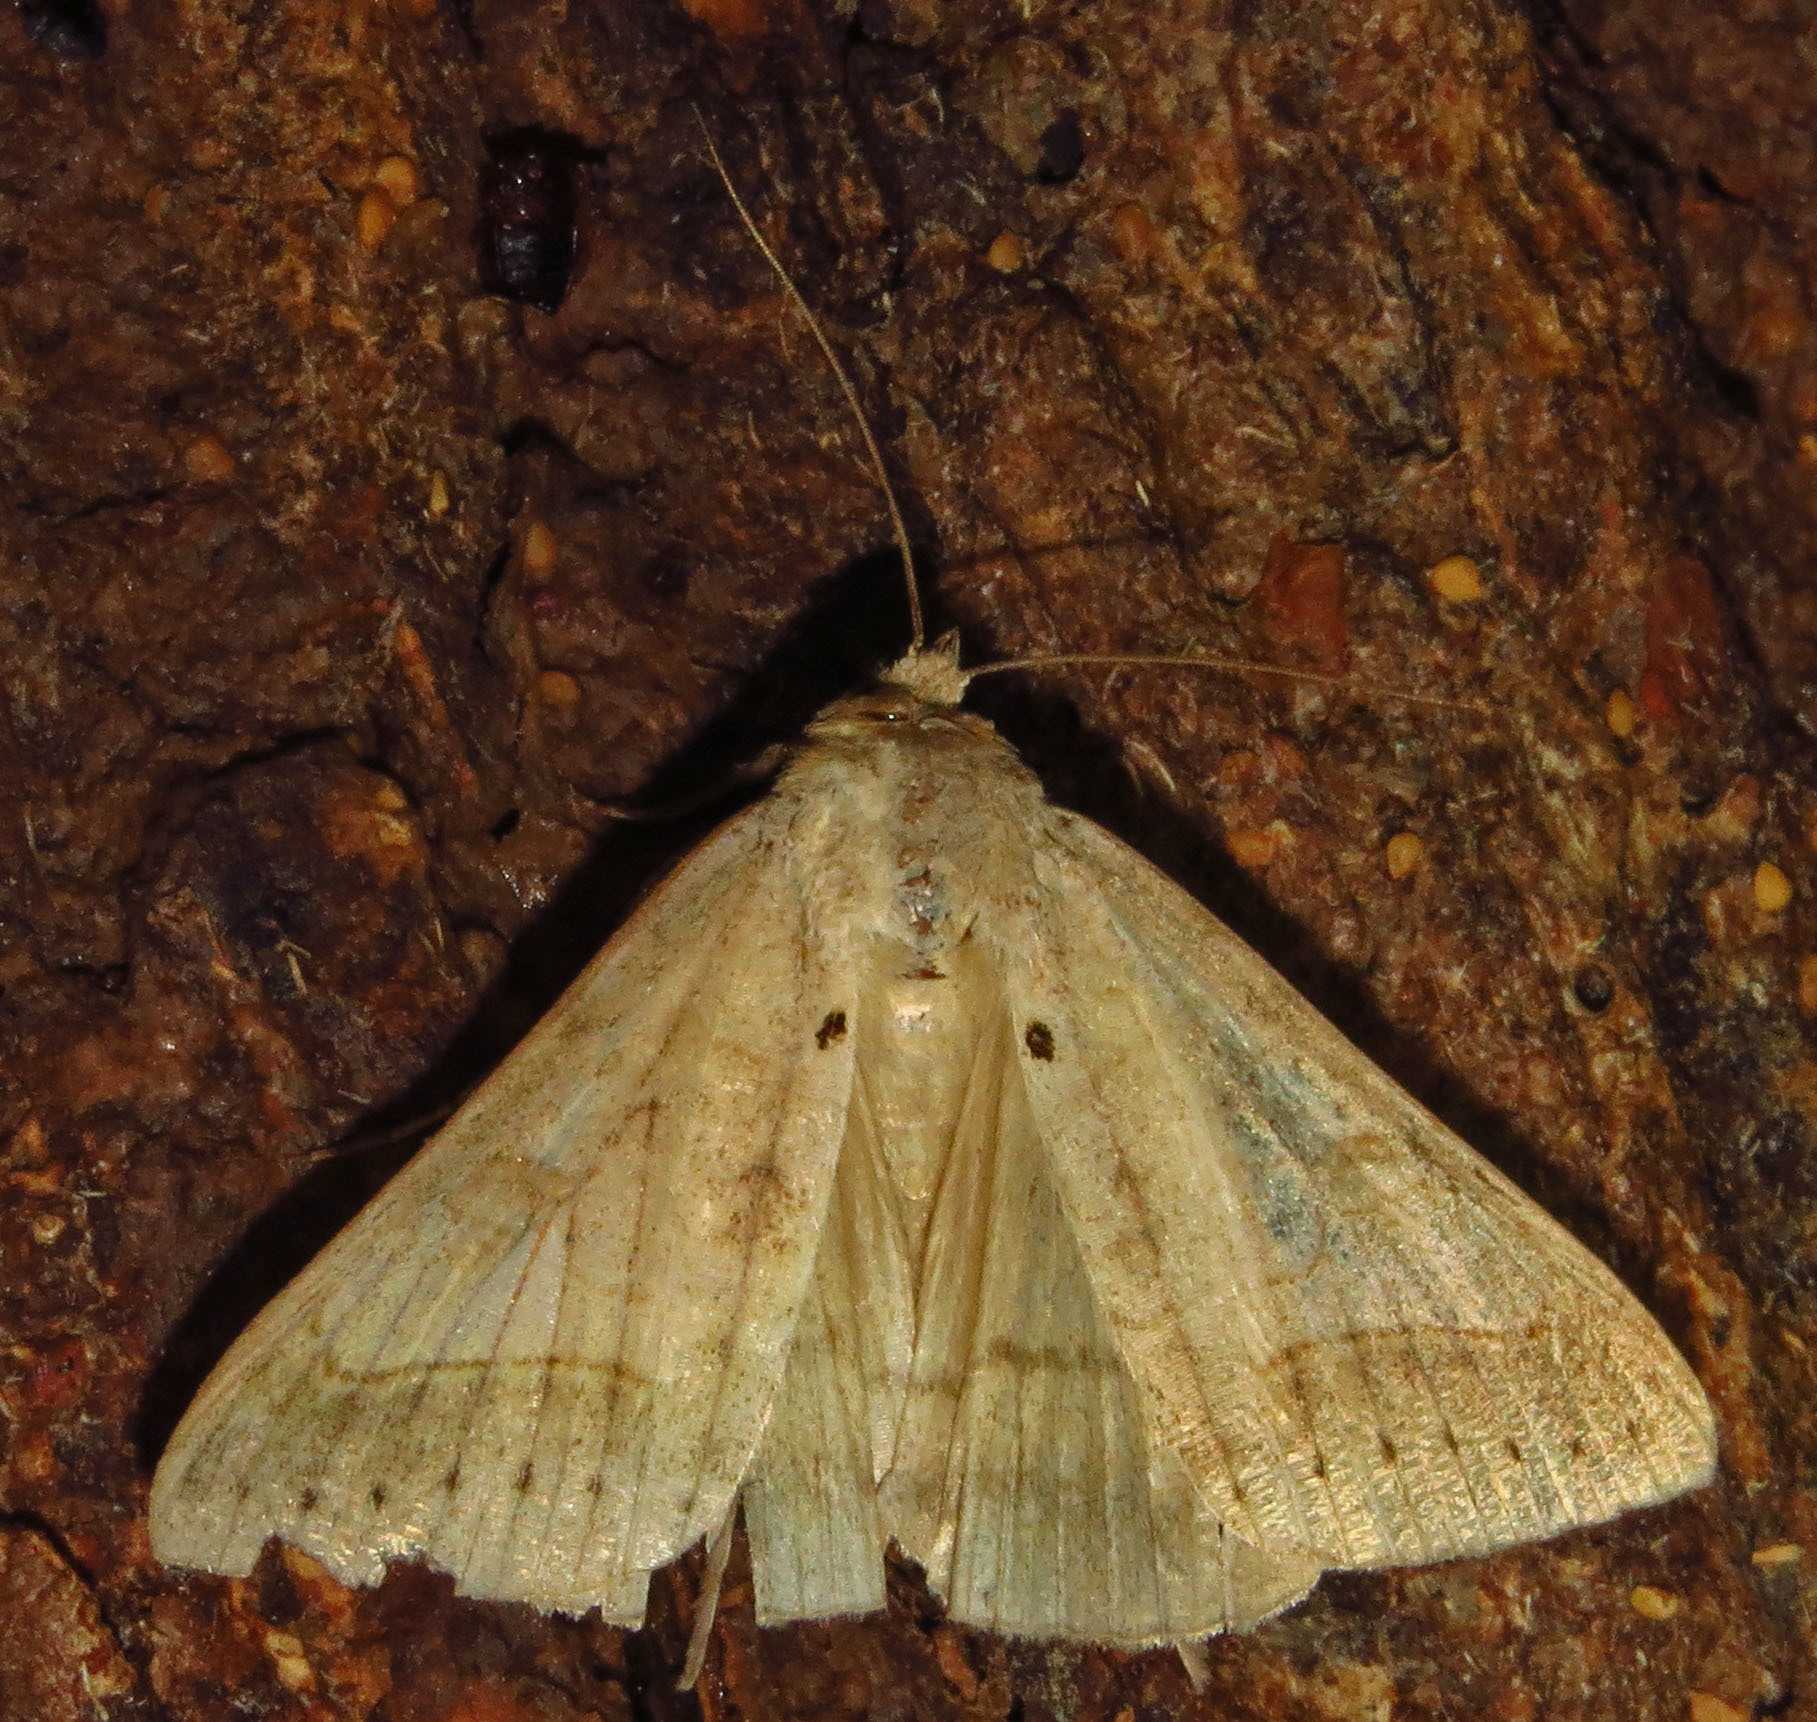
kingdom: Animalia
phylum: Arthropoda
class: Insecta
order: Lepidoptera
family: Erebidae
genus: Mocis
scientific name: Mocis marcida
